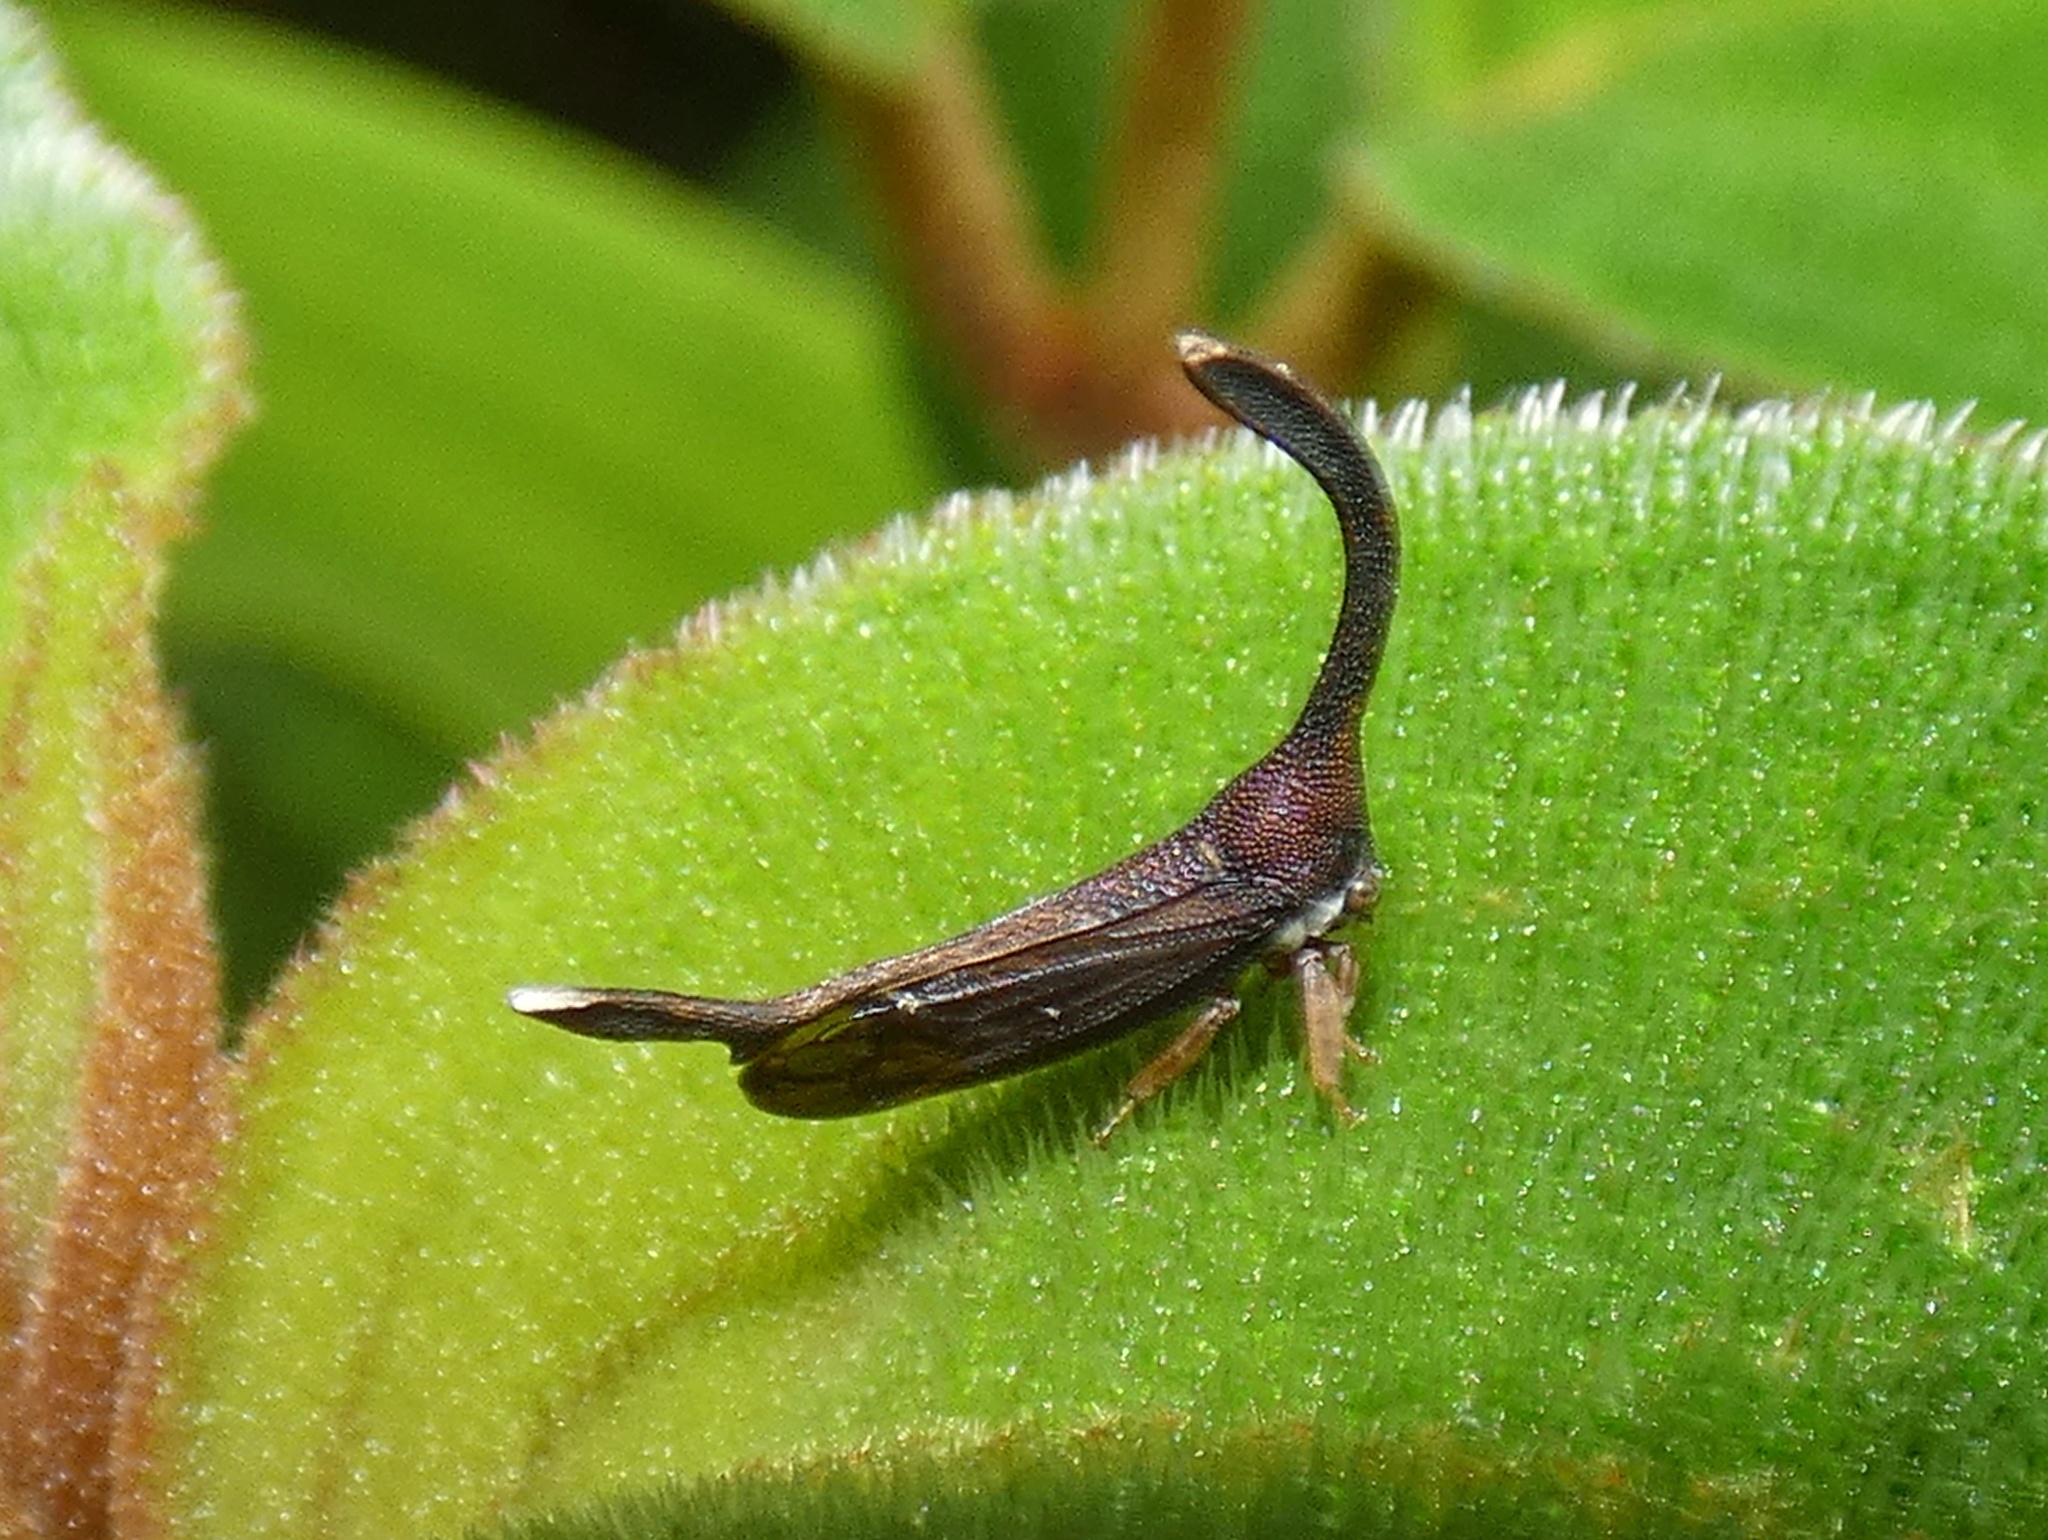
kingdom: Animalia
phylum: Arthropoda
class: Insecta
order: Hemiptera
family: Membracidae
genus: Cladonota
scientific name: Cladonota apicalis
